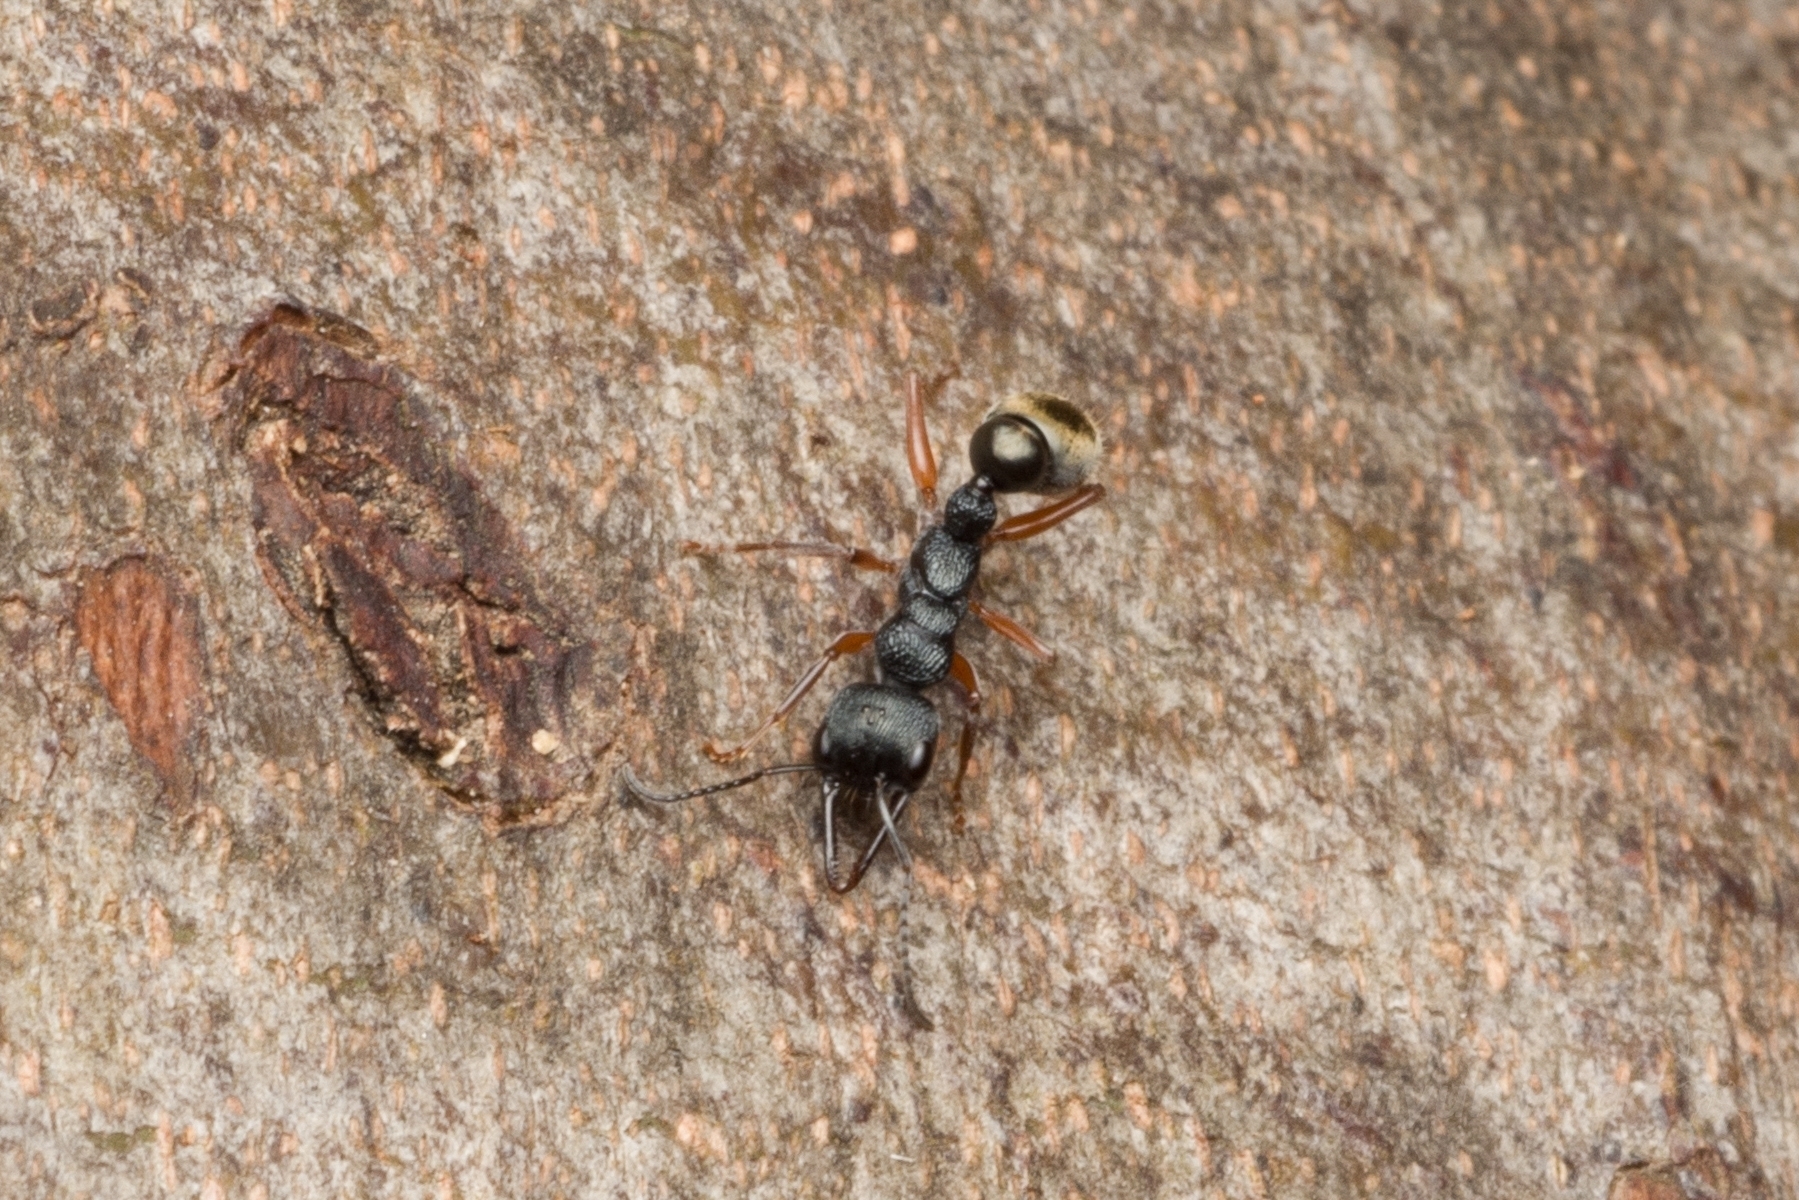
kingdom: Animalia
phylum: Arthropoda
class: Insecta
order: Hymenoptera
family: Formicidae
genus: Myrmecia
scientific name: Myrmecia fulvipes
